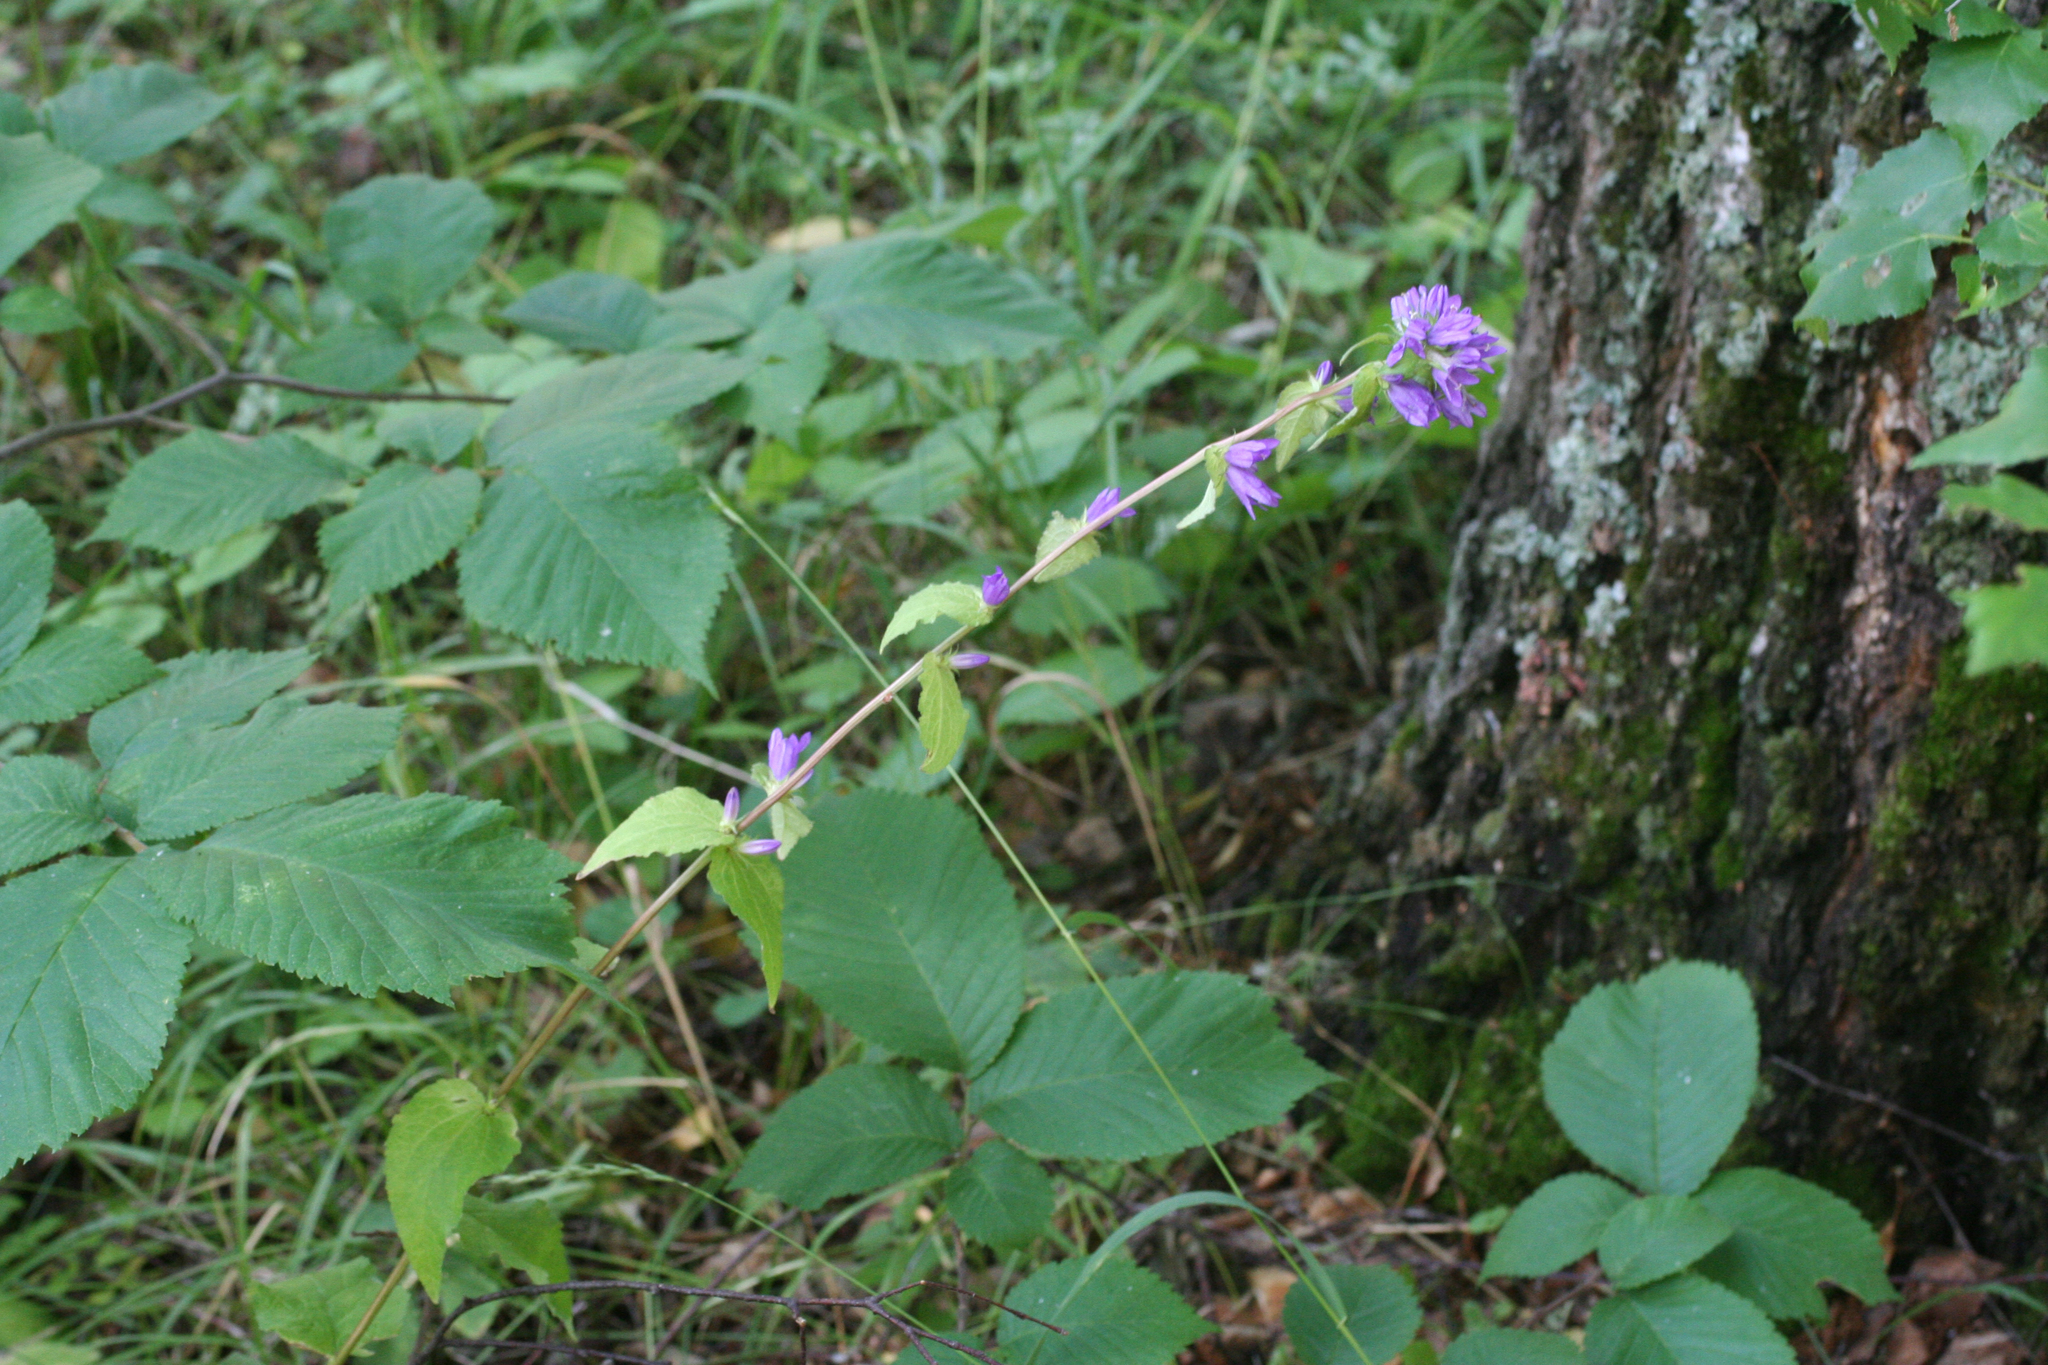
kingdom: Plantae
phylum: Tracheophyta
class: Magnoliopsida
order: Asterales
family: Campanulaceae
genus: Campanula
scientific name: Campanula glomerata
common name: Clustered bellflower
